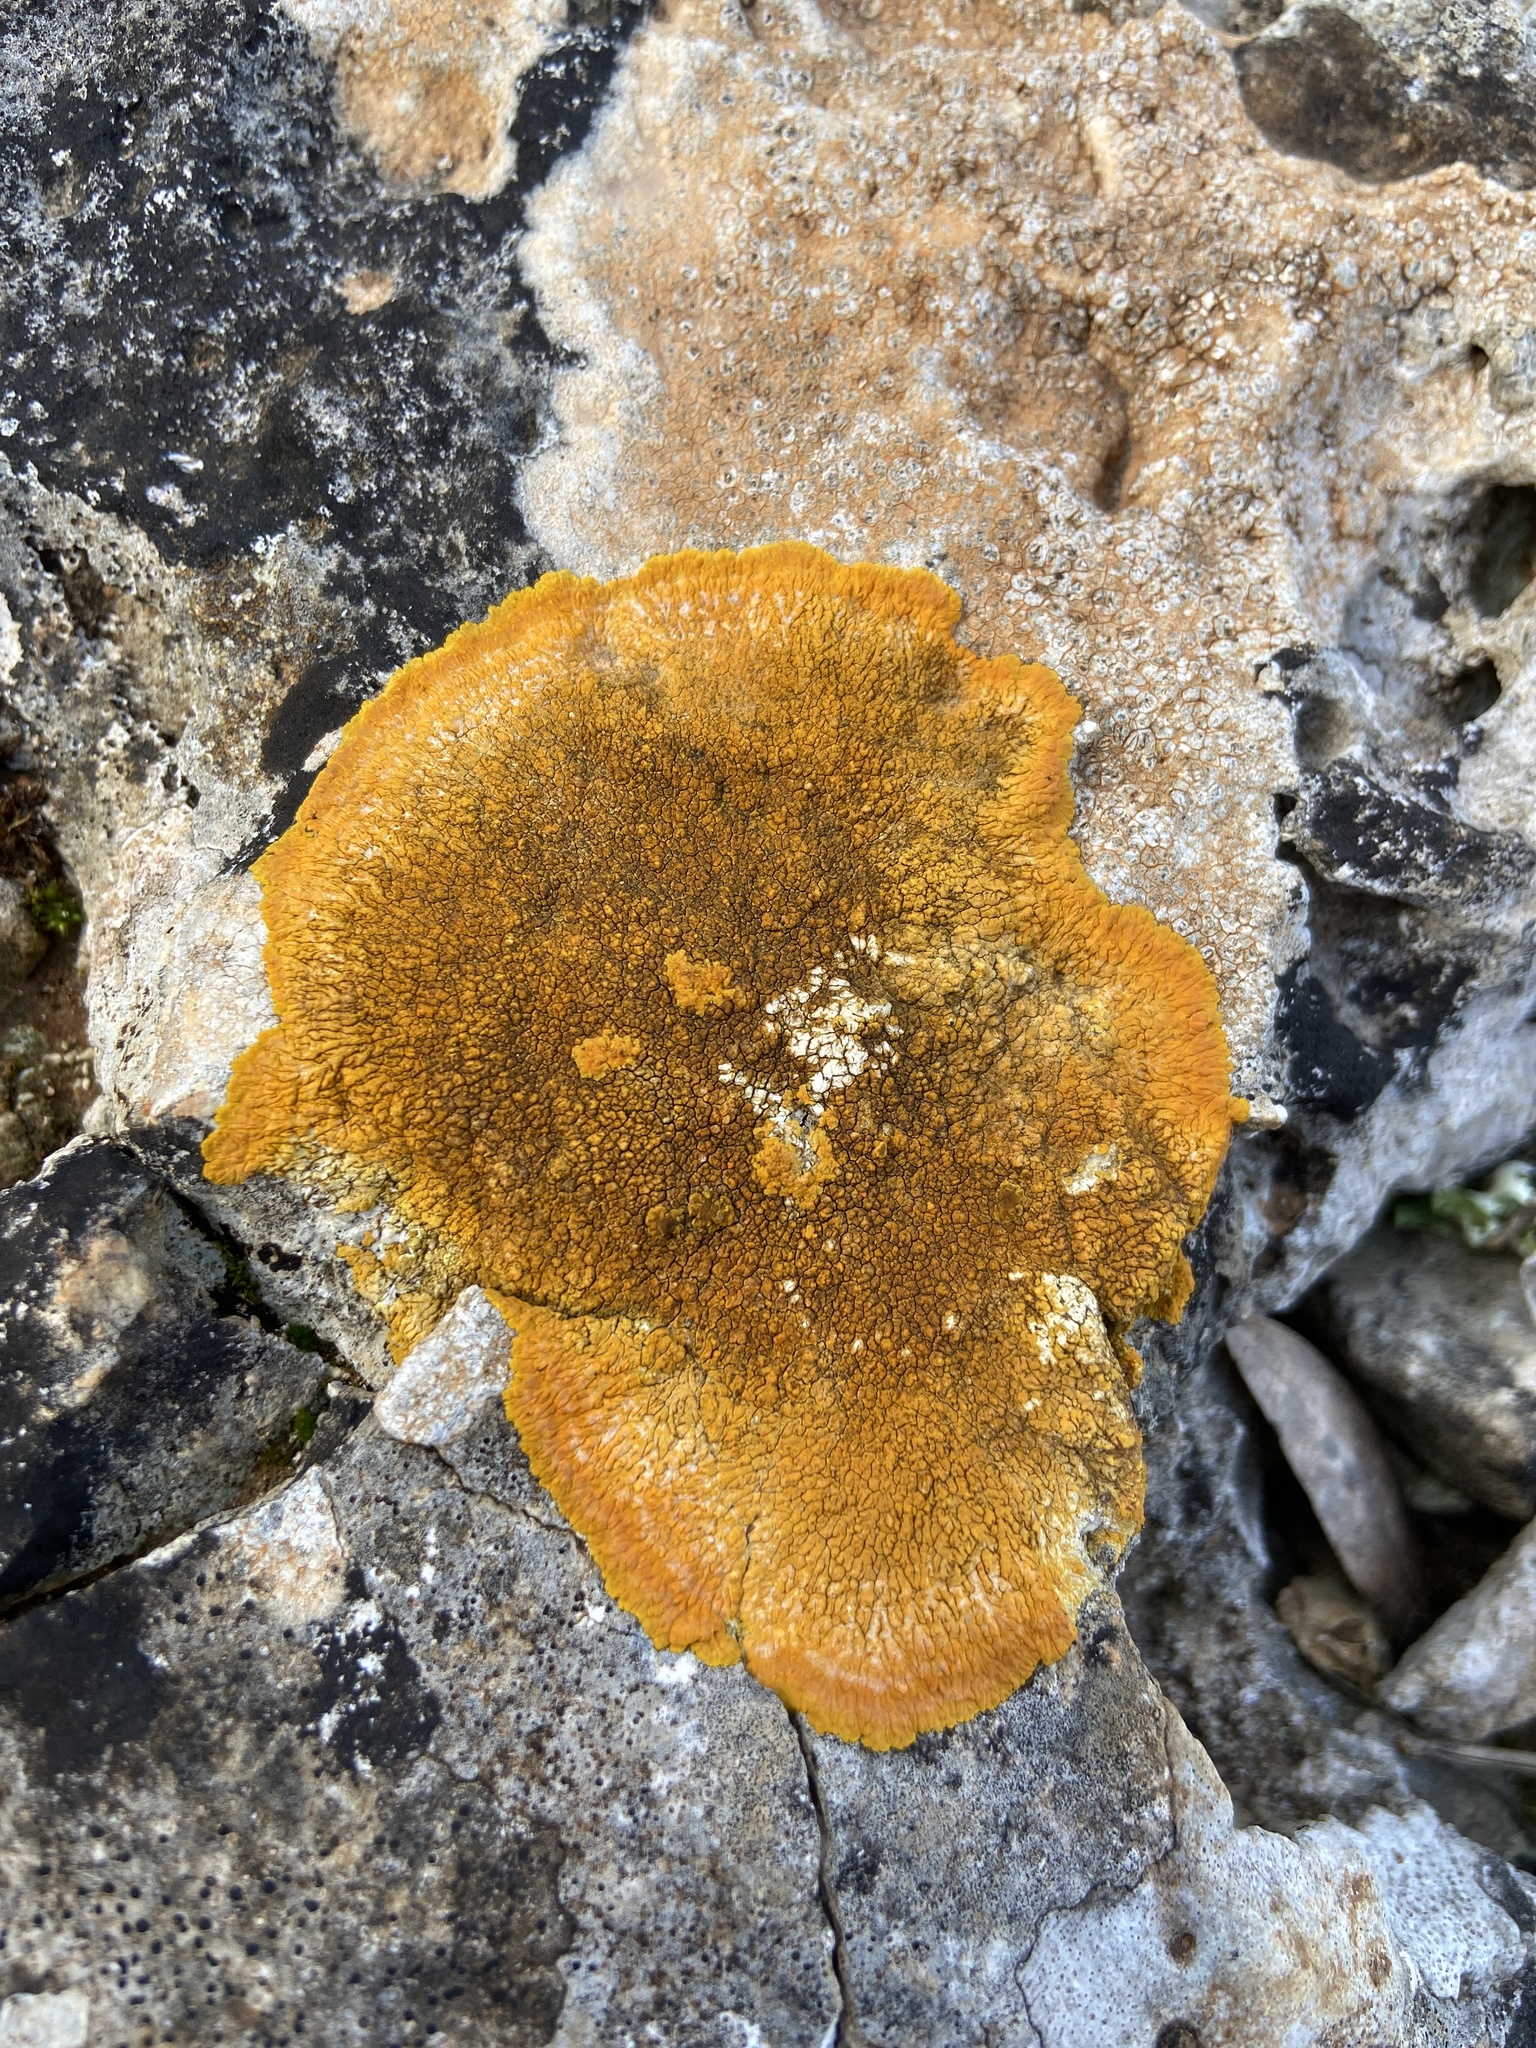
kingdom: Fungi
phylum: Ascomycota
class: Lecanoromycetes
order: Teloschistales
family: Teloschistaceae
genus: Variospora
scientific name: Variospora aurantia
